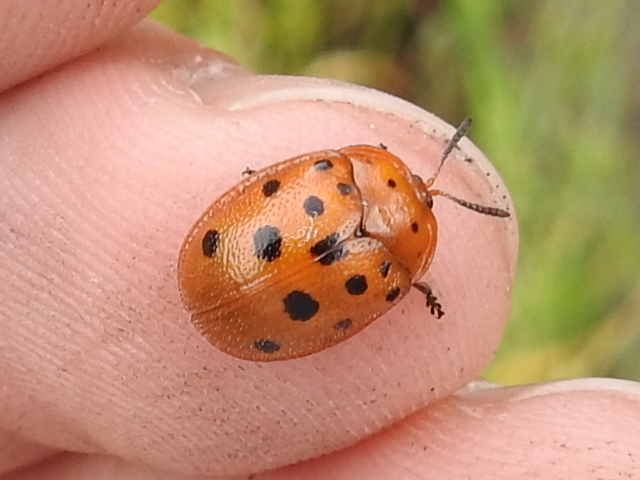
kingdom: Animalia
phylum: Arthropoda
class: Insecta
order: Coleoptera
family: Chrysomelidae
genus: Chelymorpha
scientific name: Chelymorpha phytophagica
